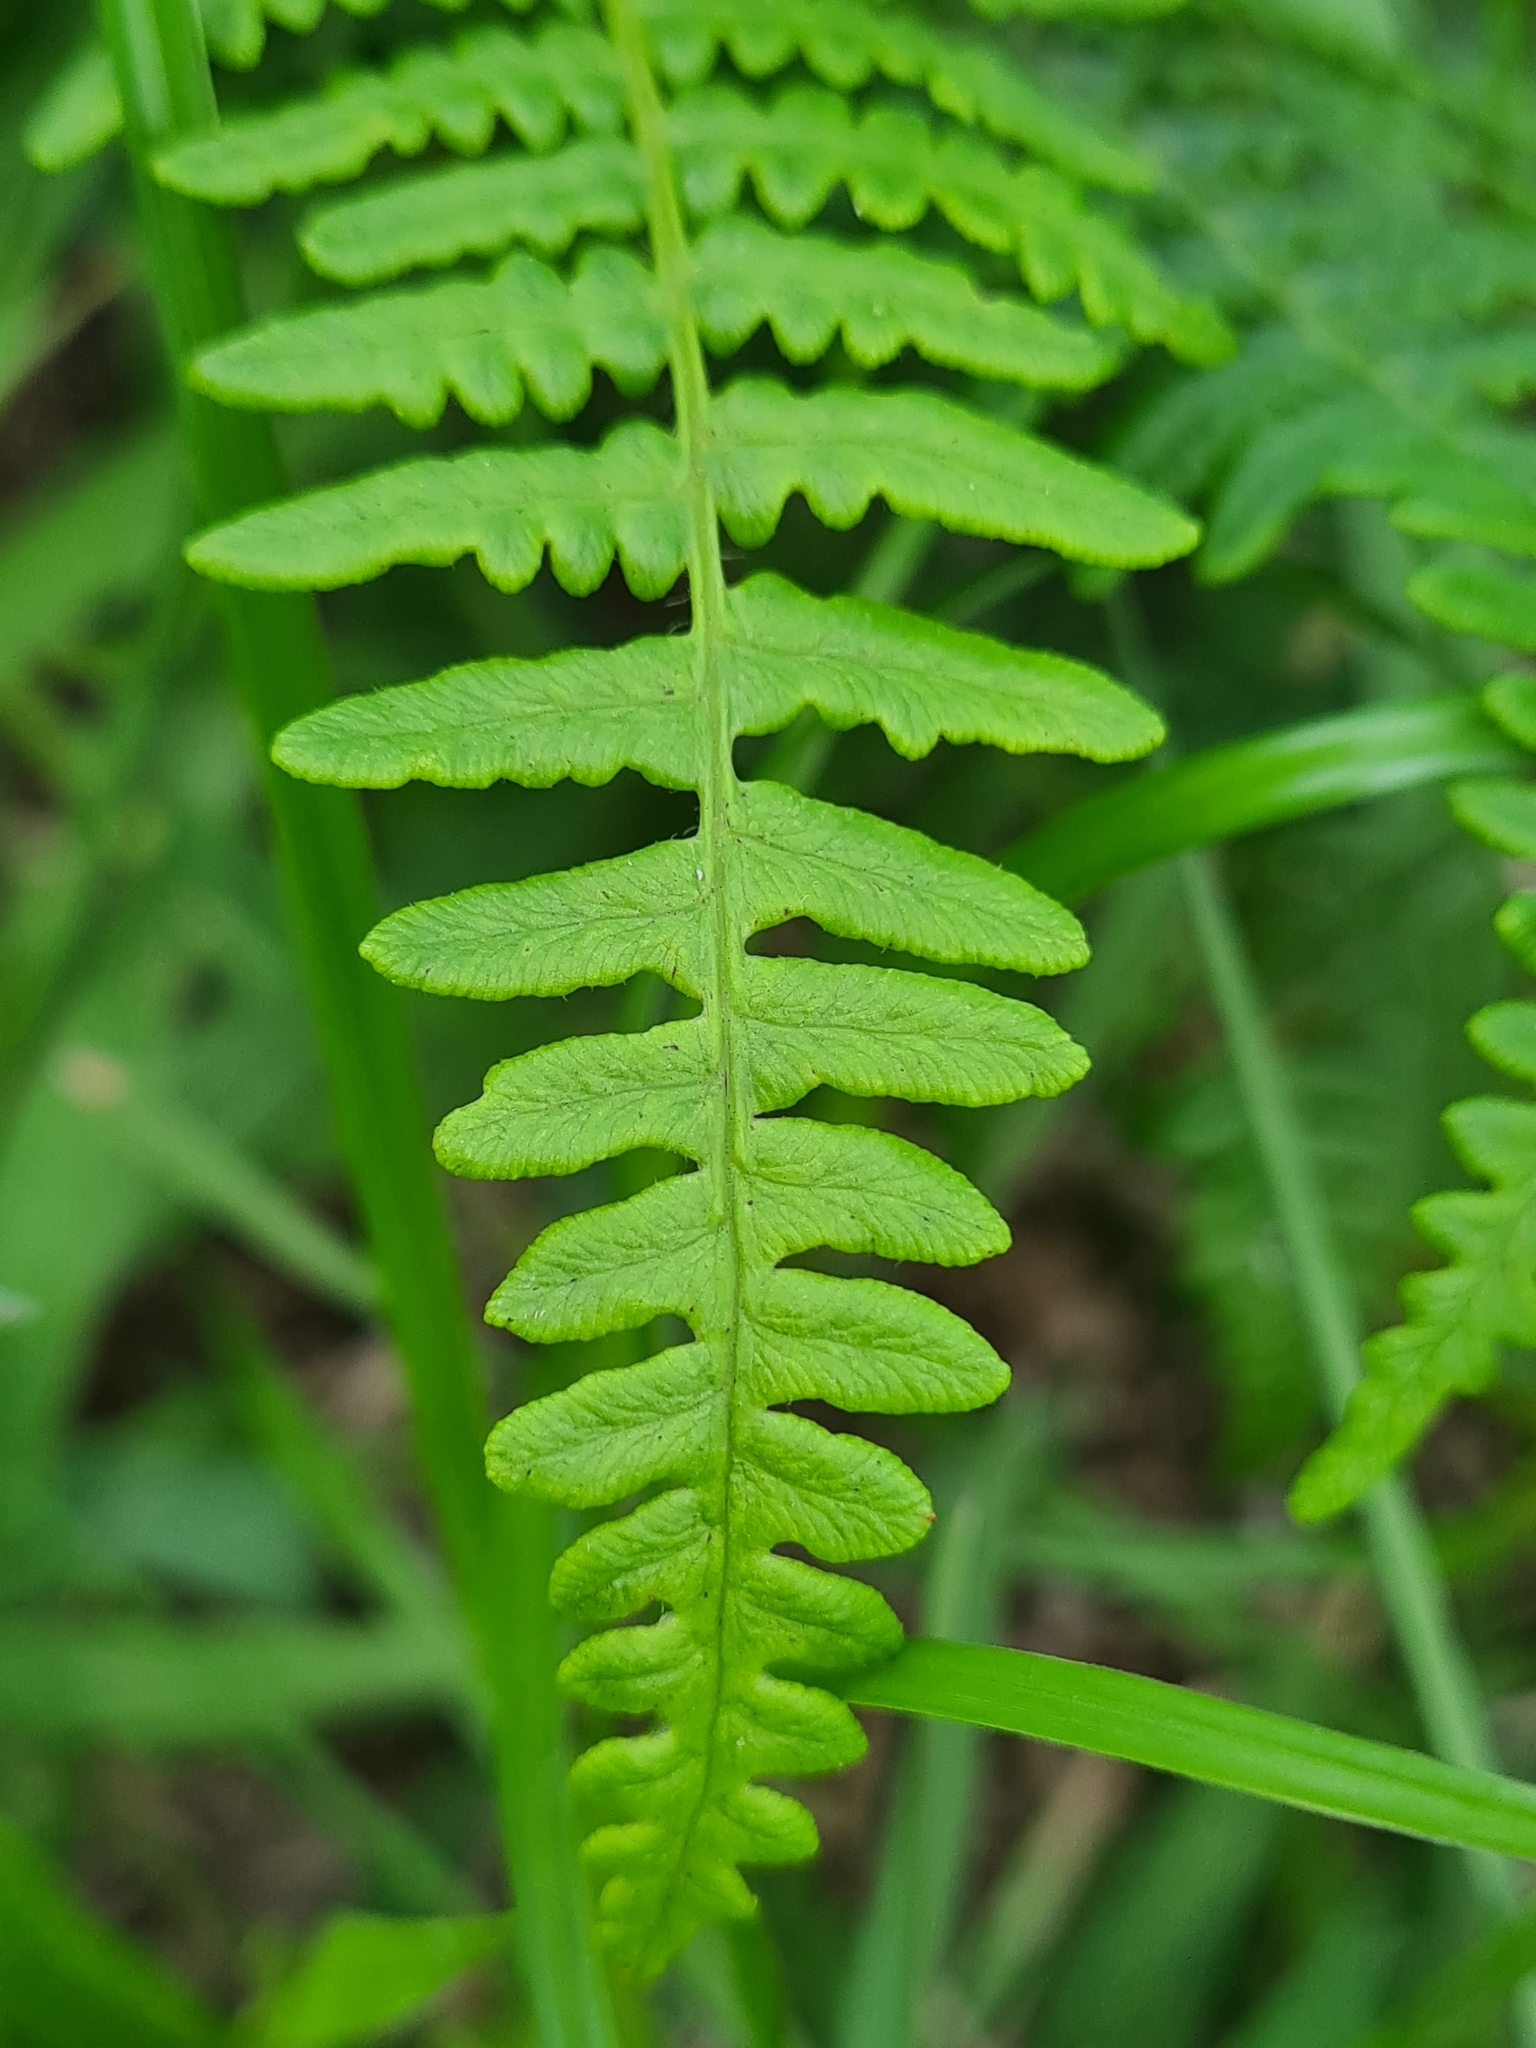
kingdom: Plantae
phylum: Tracheophyta
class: Polypodiopsida
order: Polypodiales
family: Dennstaedtiaceae
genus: Pteridium
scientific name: Pteridium aquilinum
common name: Bracken
